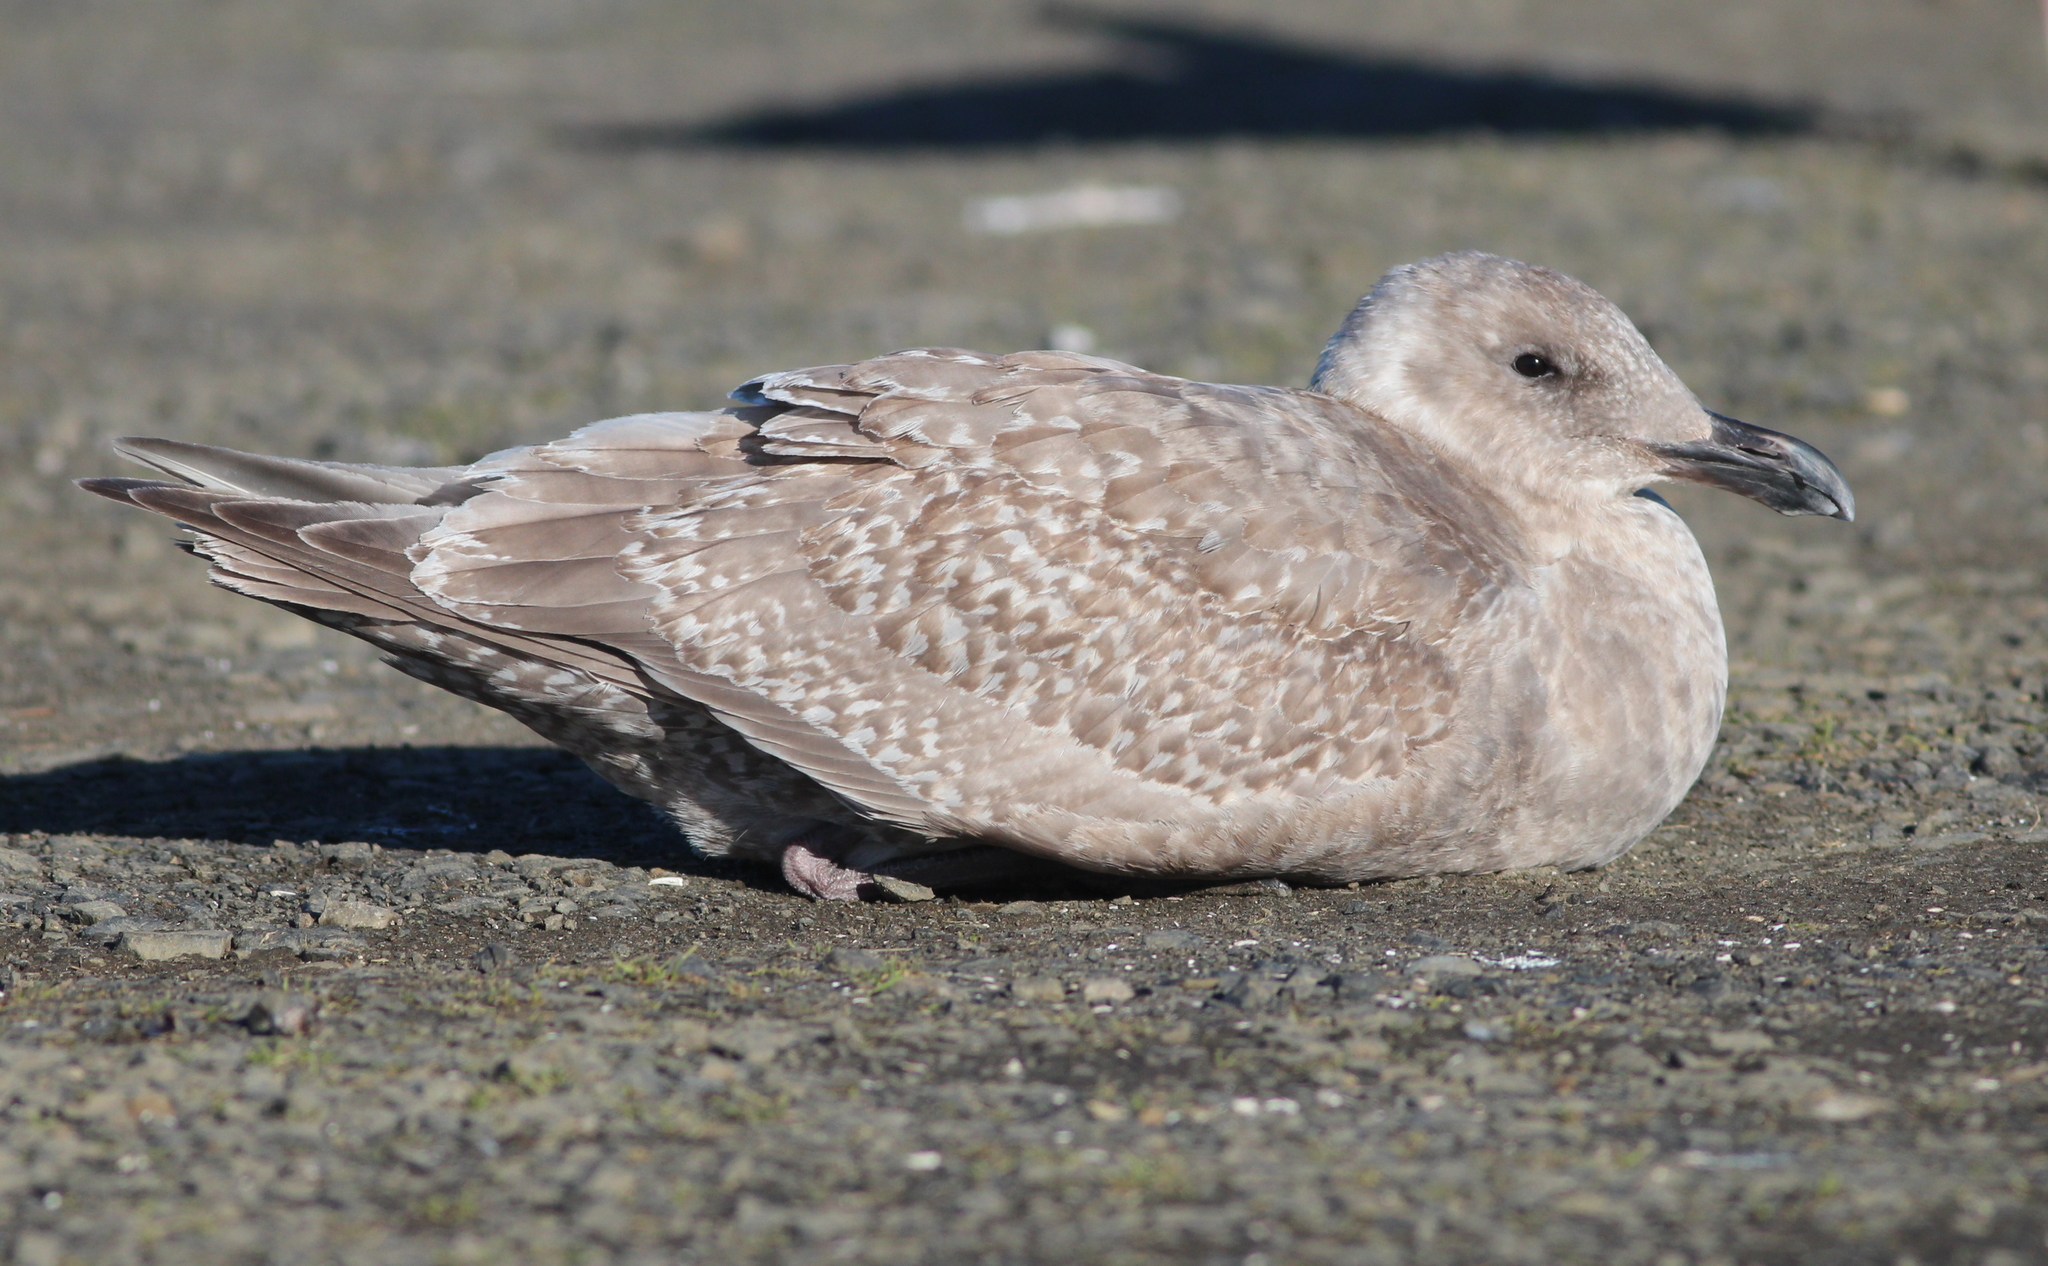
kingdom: Animalia
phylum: Chordata
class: Aves
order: Charadriiformes
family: Laridae
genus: Larus
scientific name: Larus
